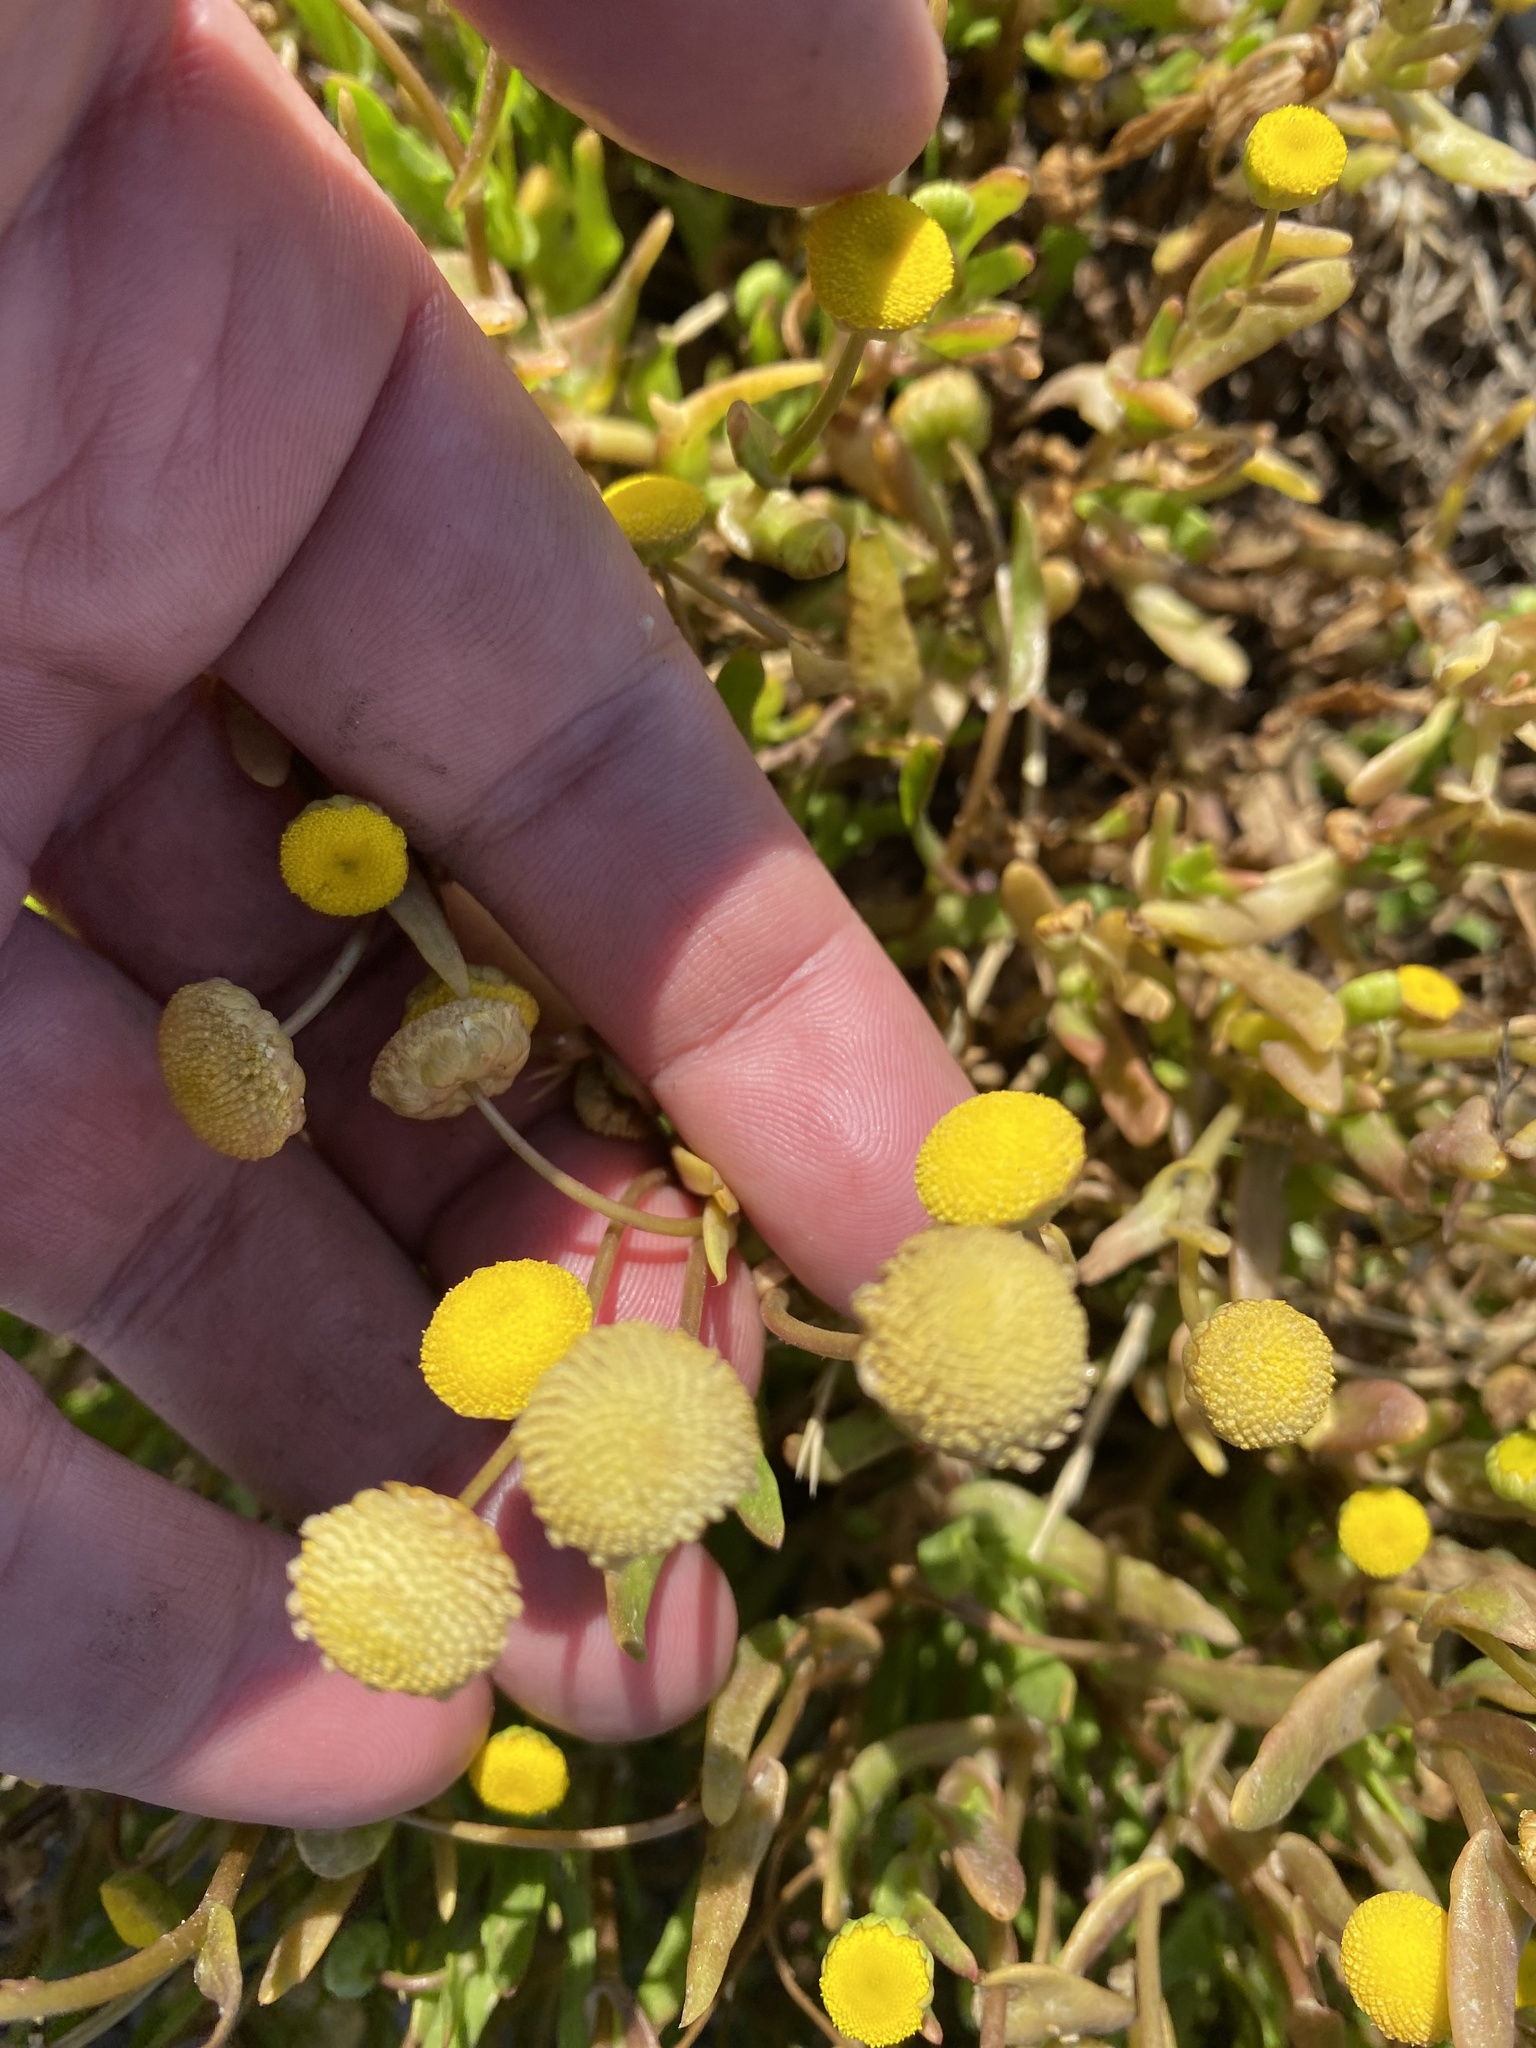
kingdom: Plantae
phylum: Tracheophyta
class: Magnoliopsida
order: Asterales
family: Asteraceae
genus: Cotula
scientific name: Cotula coronopifolia
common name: Buttonweed
